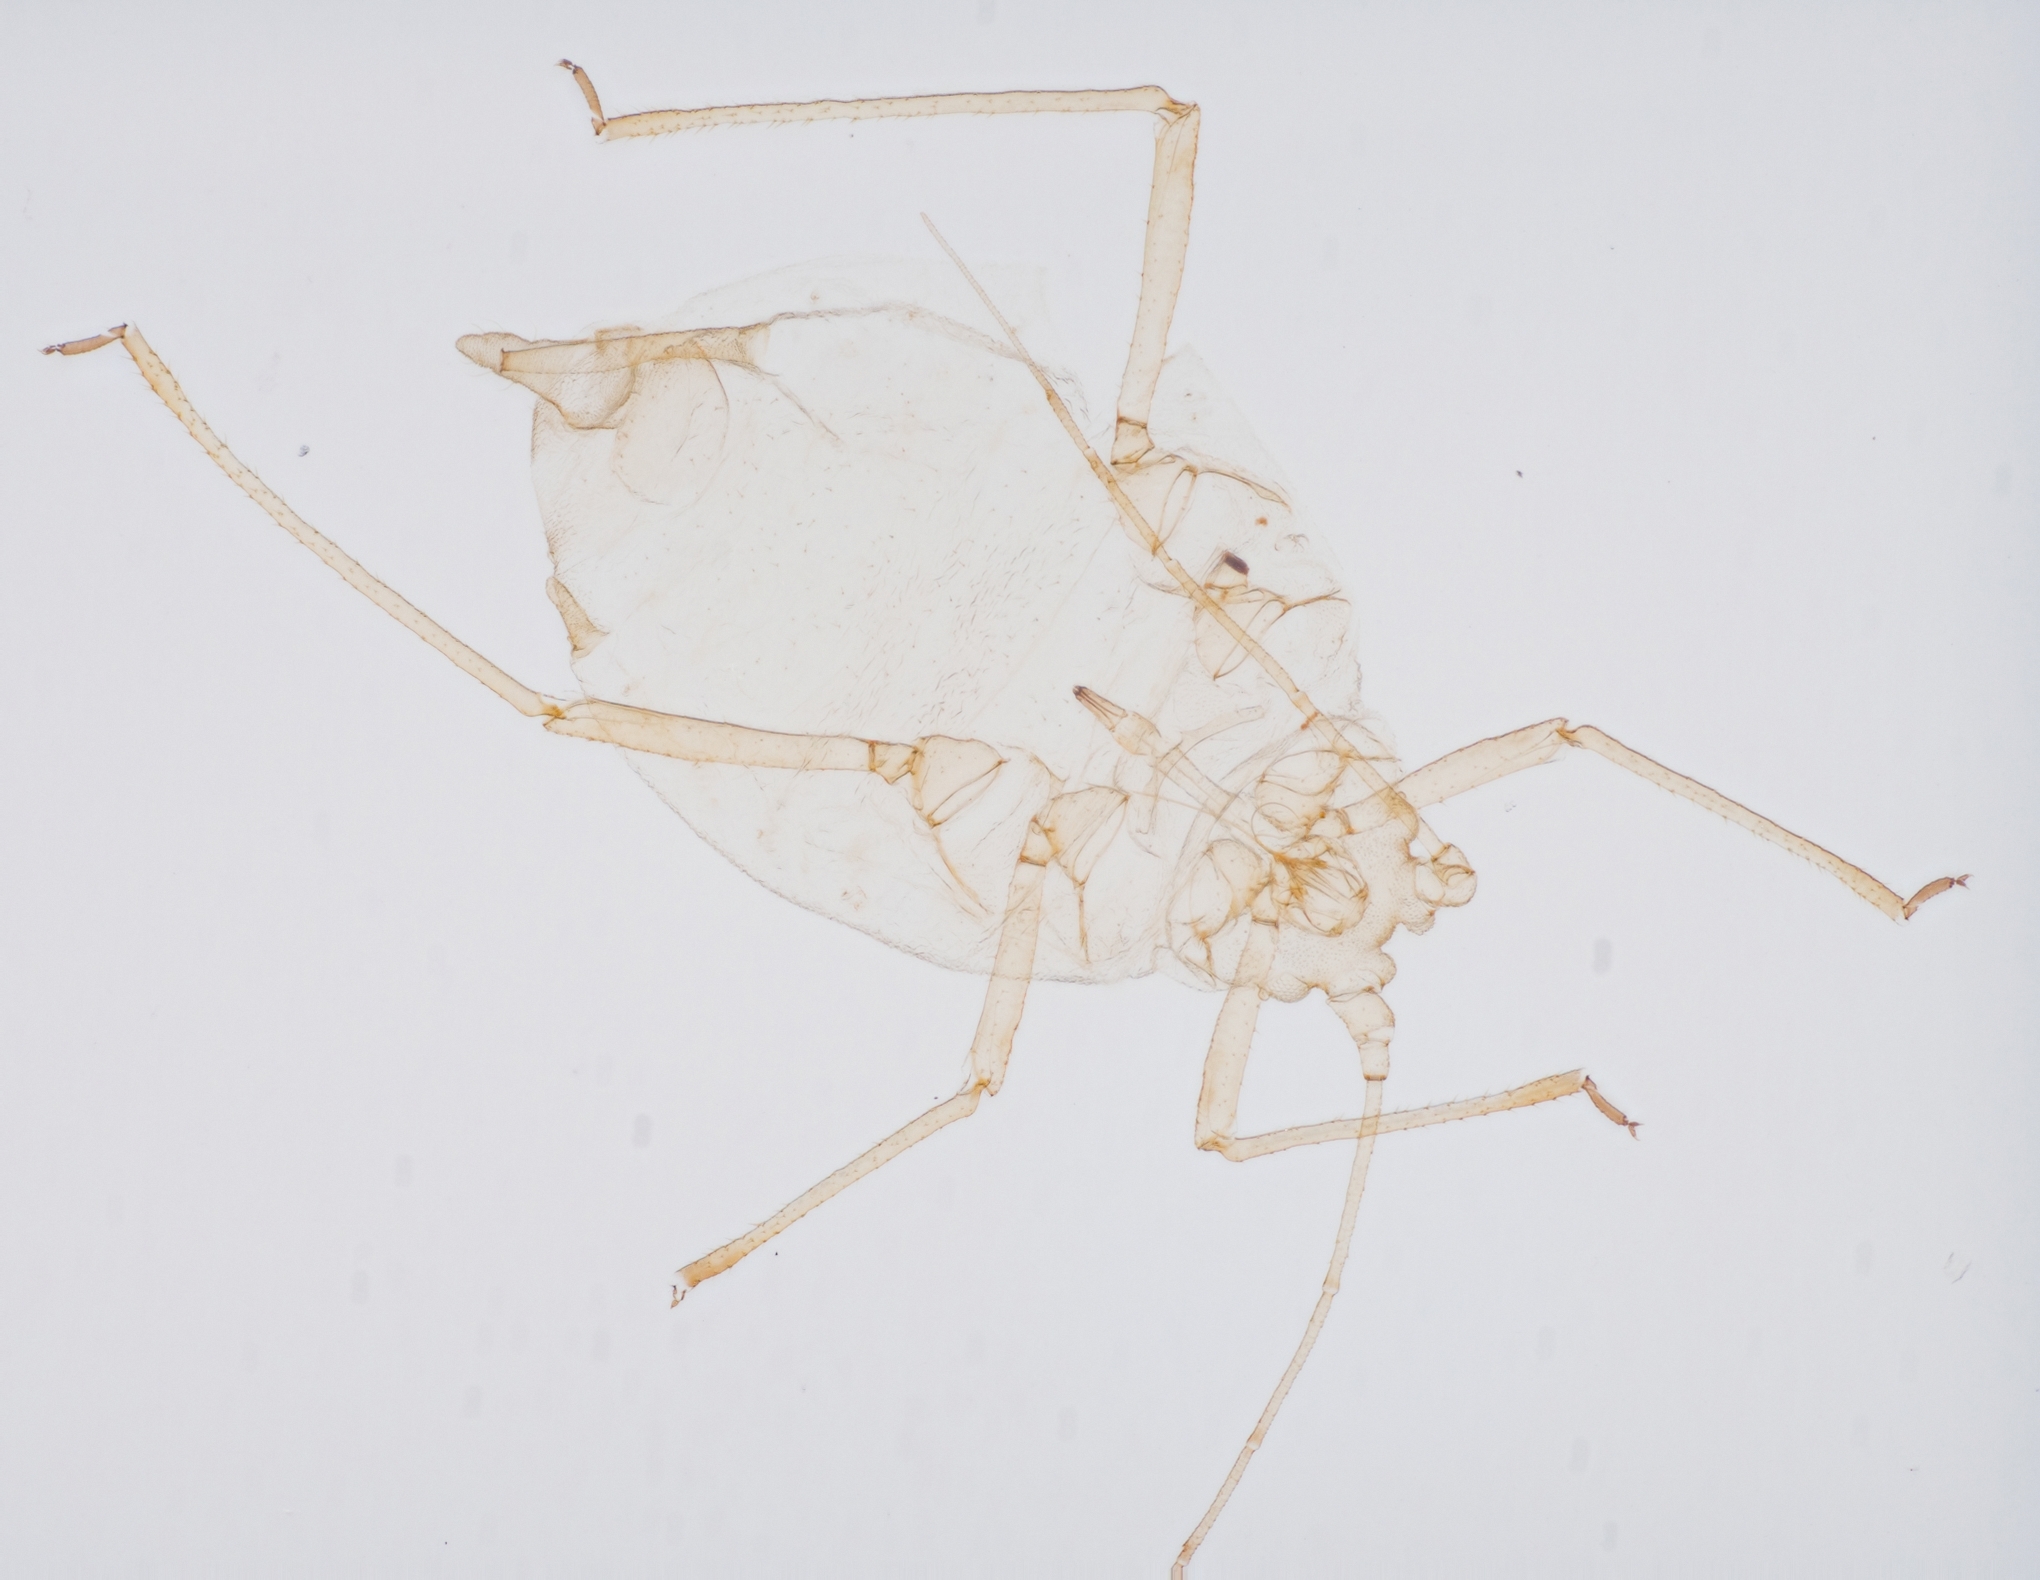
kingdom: Animalia
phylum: Arthropoda
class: Insecta
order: Hemiptera
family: Aphididae
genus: Myzus
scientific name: Myzus persicae
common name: Green peach aphid
